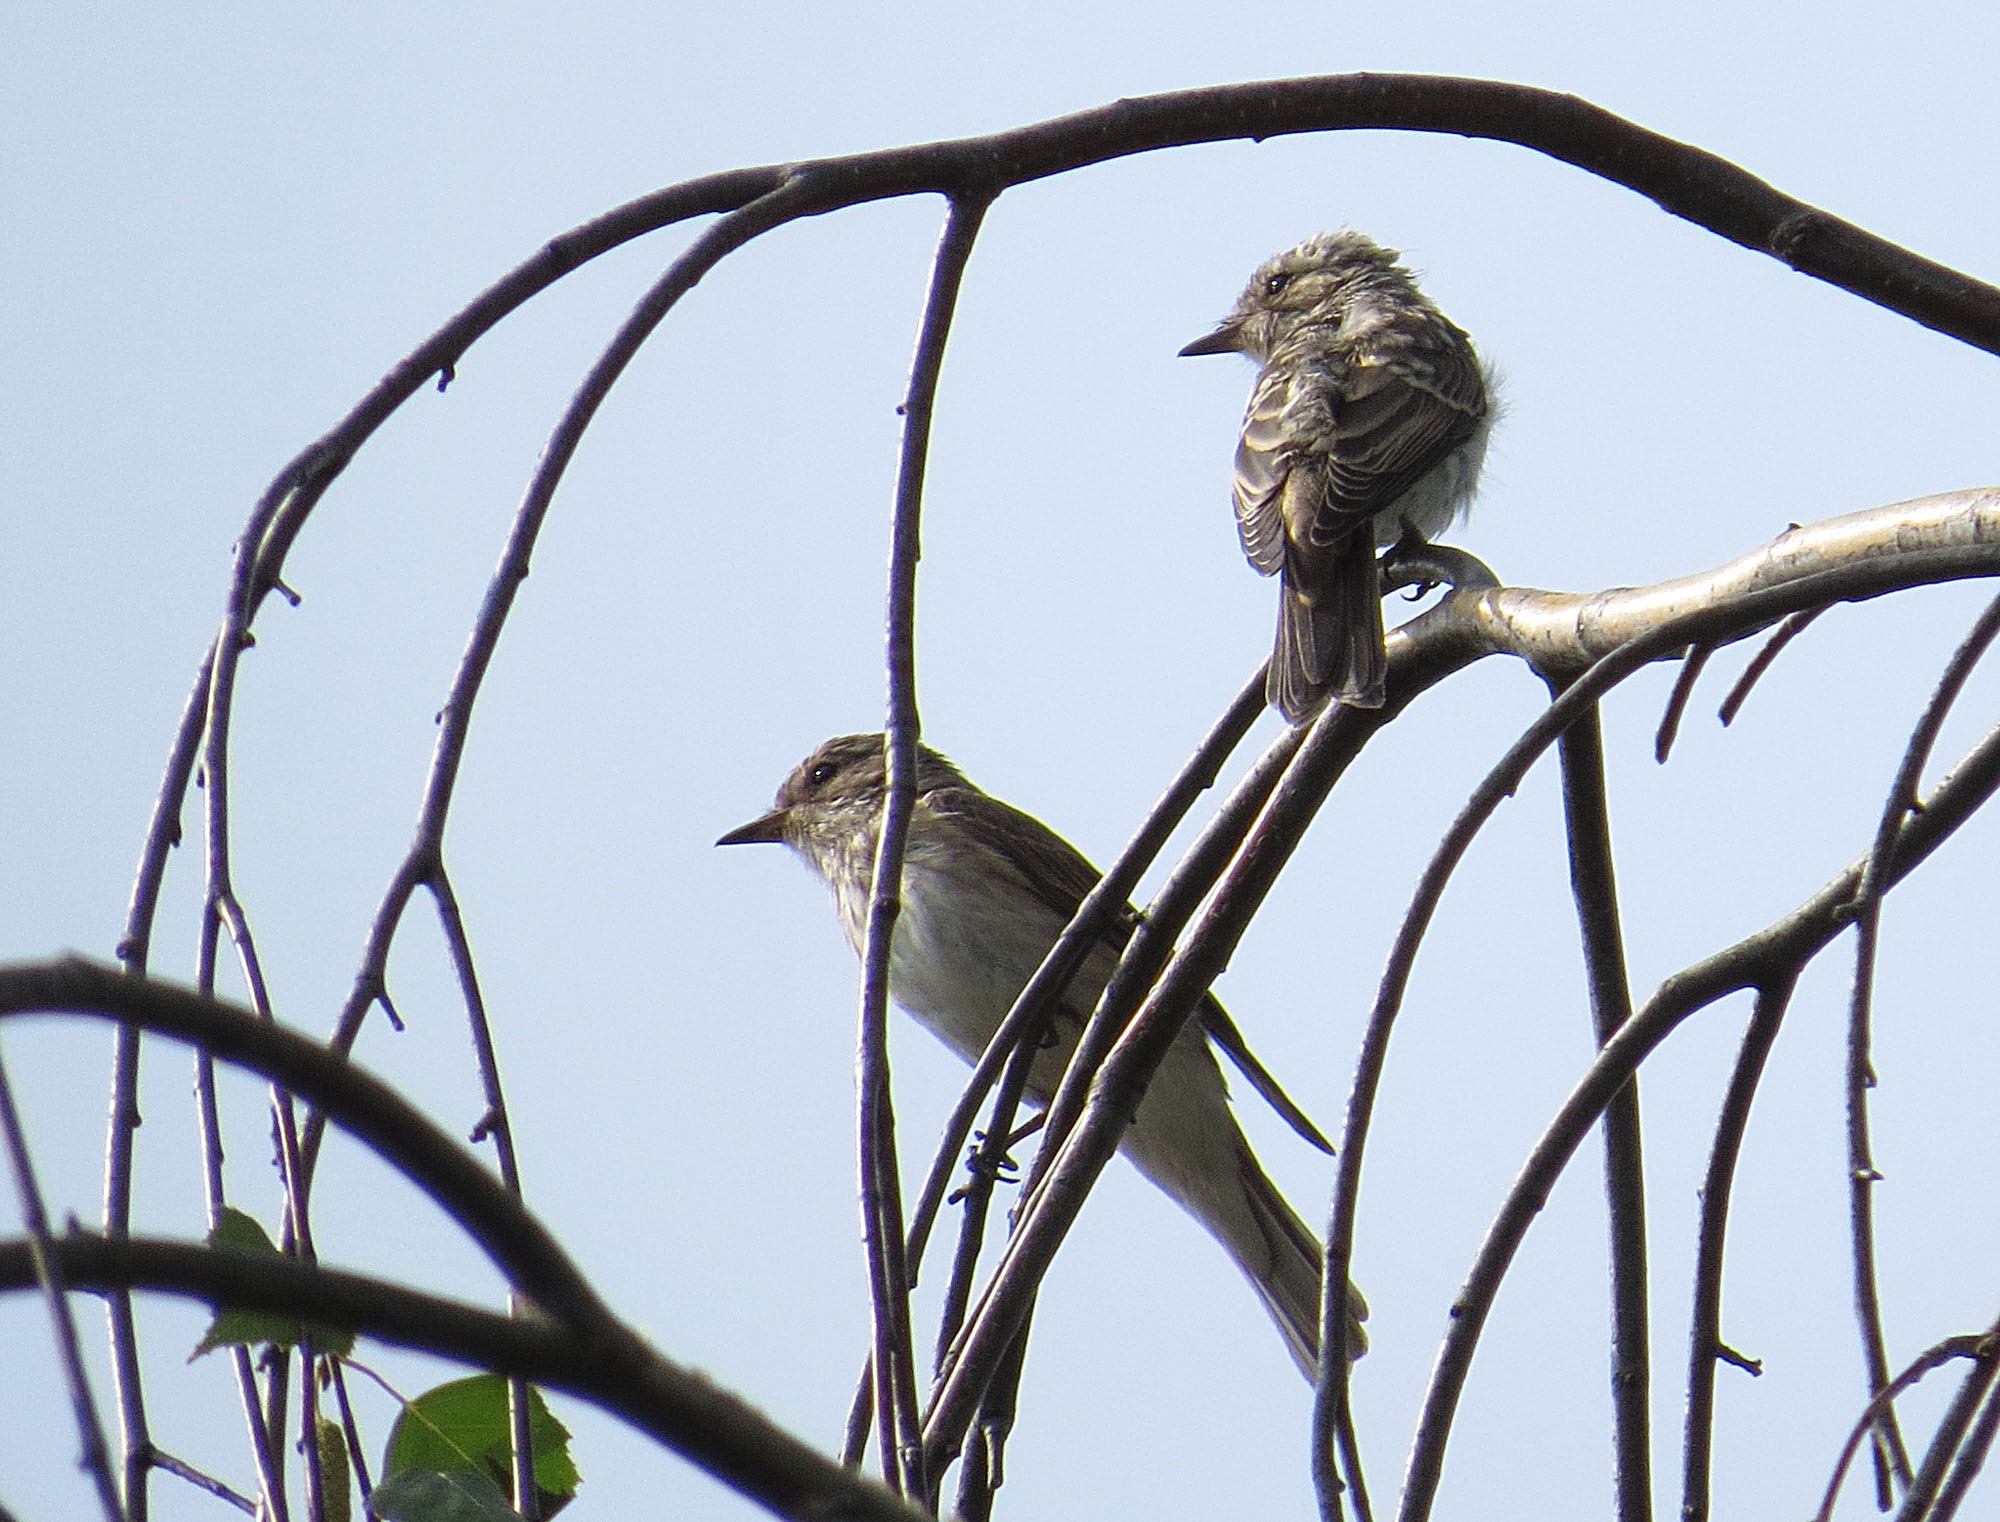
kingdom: Animalia
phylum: Chordata
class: Aves
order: Passeriformes
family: Muscicapidae
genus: Muscicapa
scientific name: Muscicapa striata
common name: Spotted flycatcher
